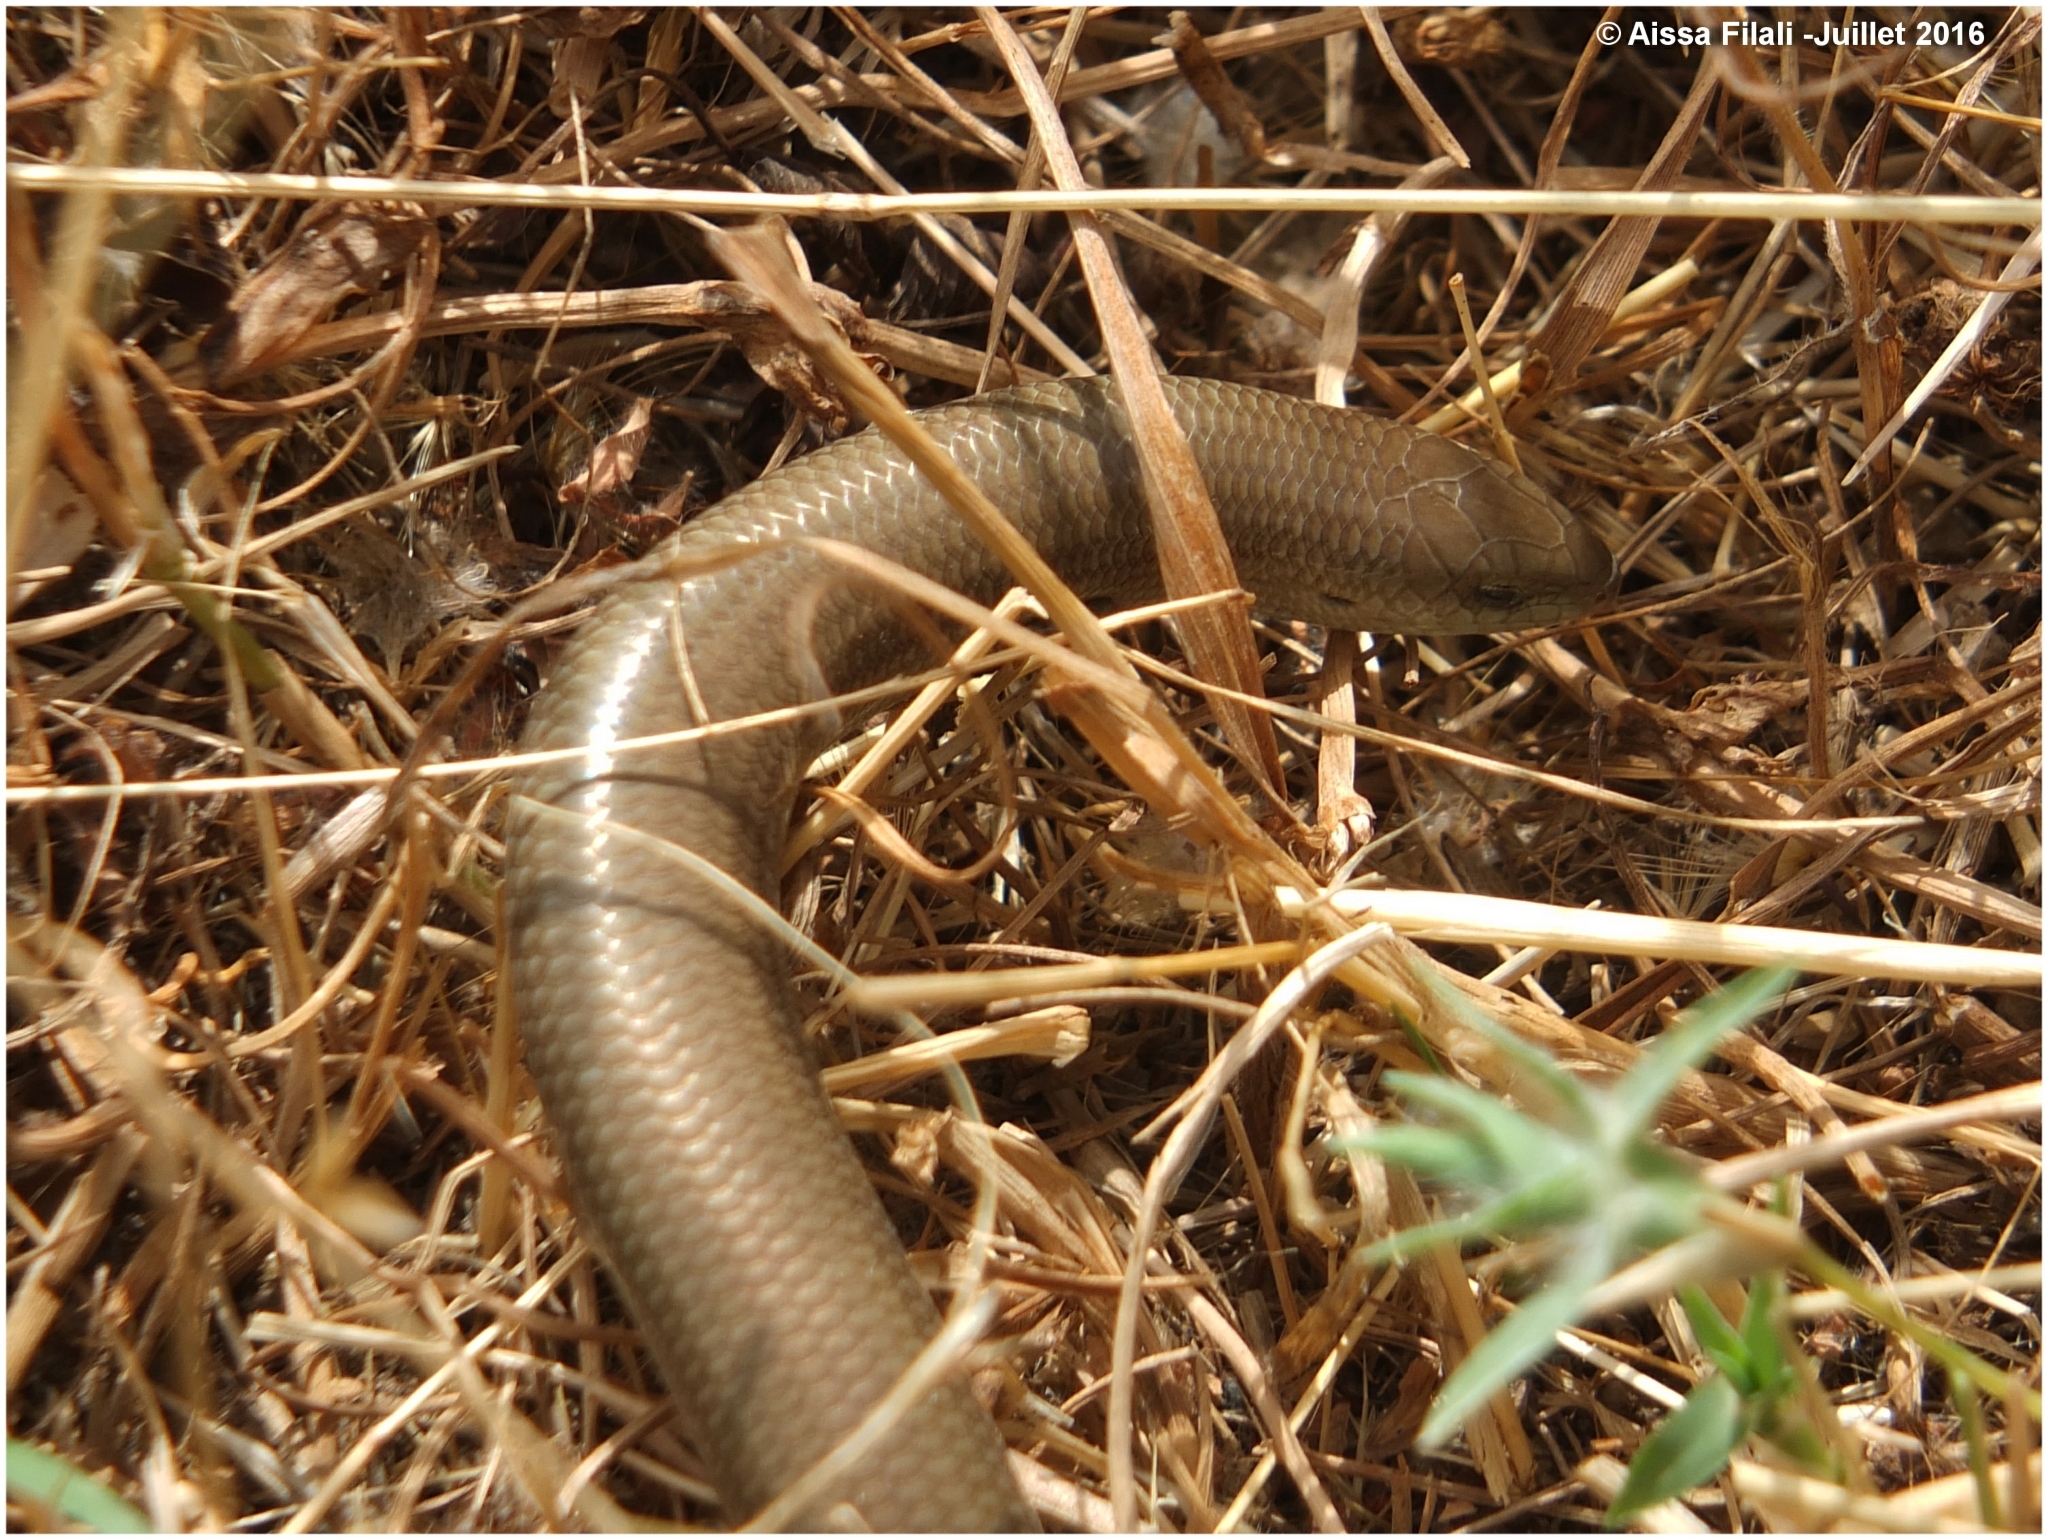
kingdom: Animalia
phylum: Chordata
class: Squamata
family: Scincidae
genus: Chalcides
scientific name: Chalcides mertensi
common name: Algerian three-toed skink
